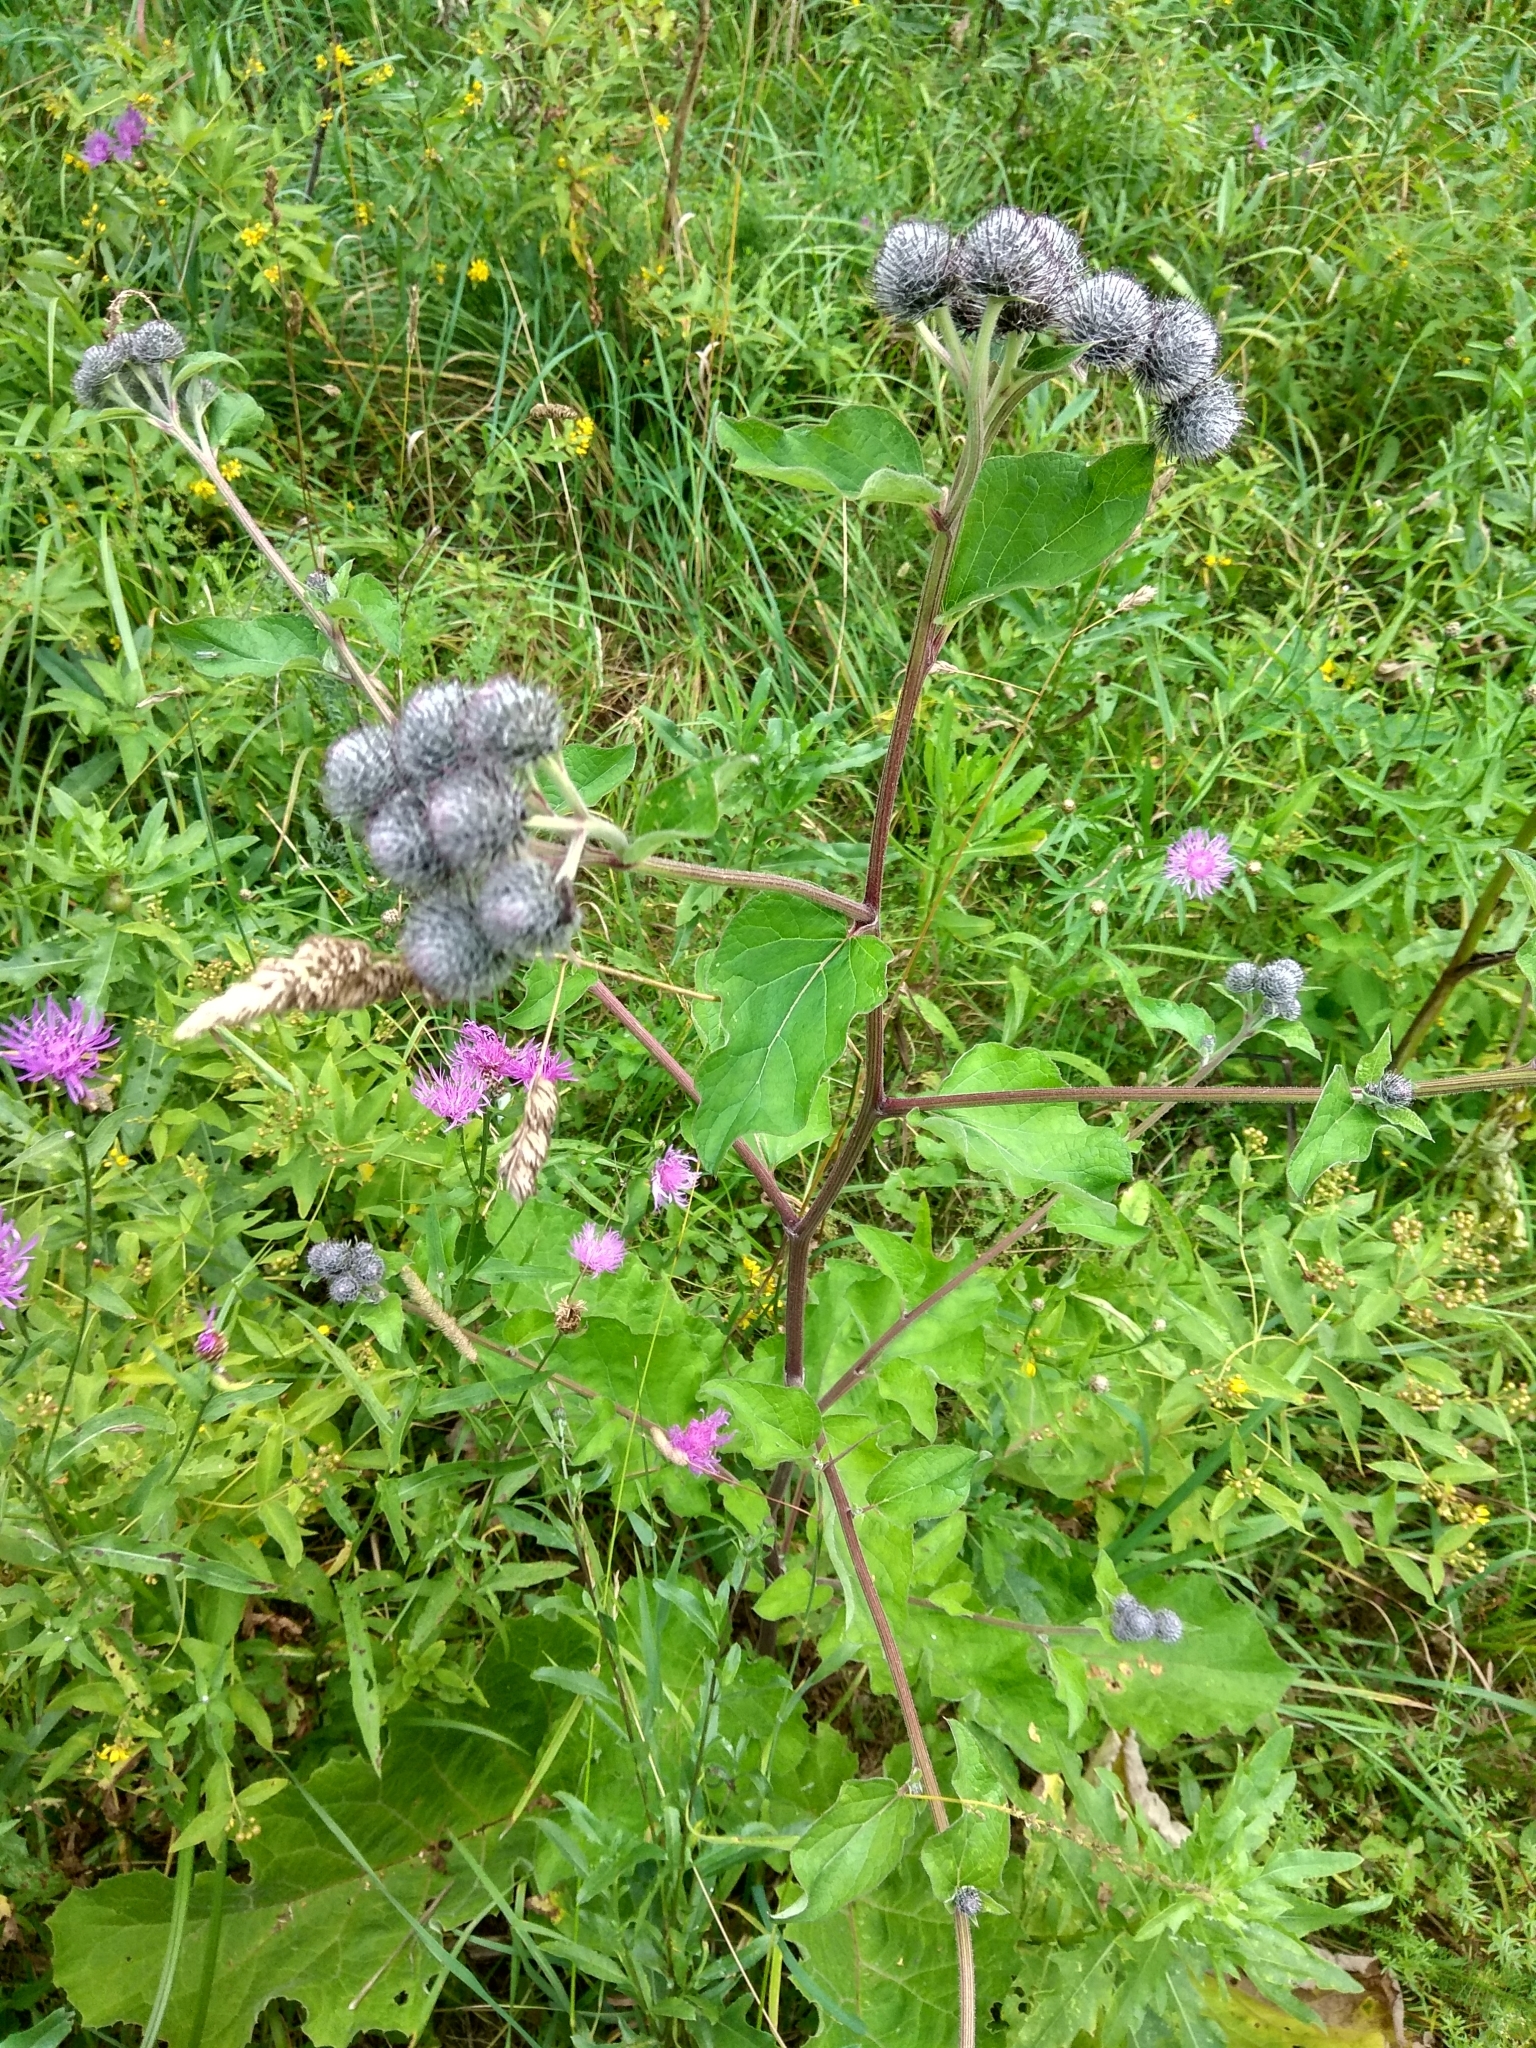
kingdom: Plantae
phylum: Tracheophyta
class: Magnoliopsida
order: Asterales
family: Asteraceae
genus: Arctium
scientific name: Arctium tomentosum
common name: Woolly burdock
